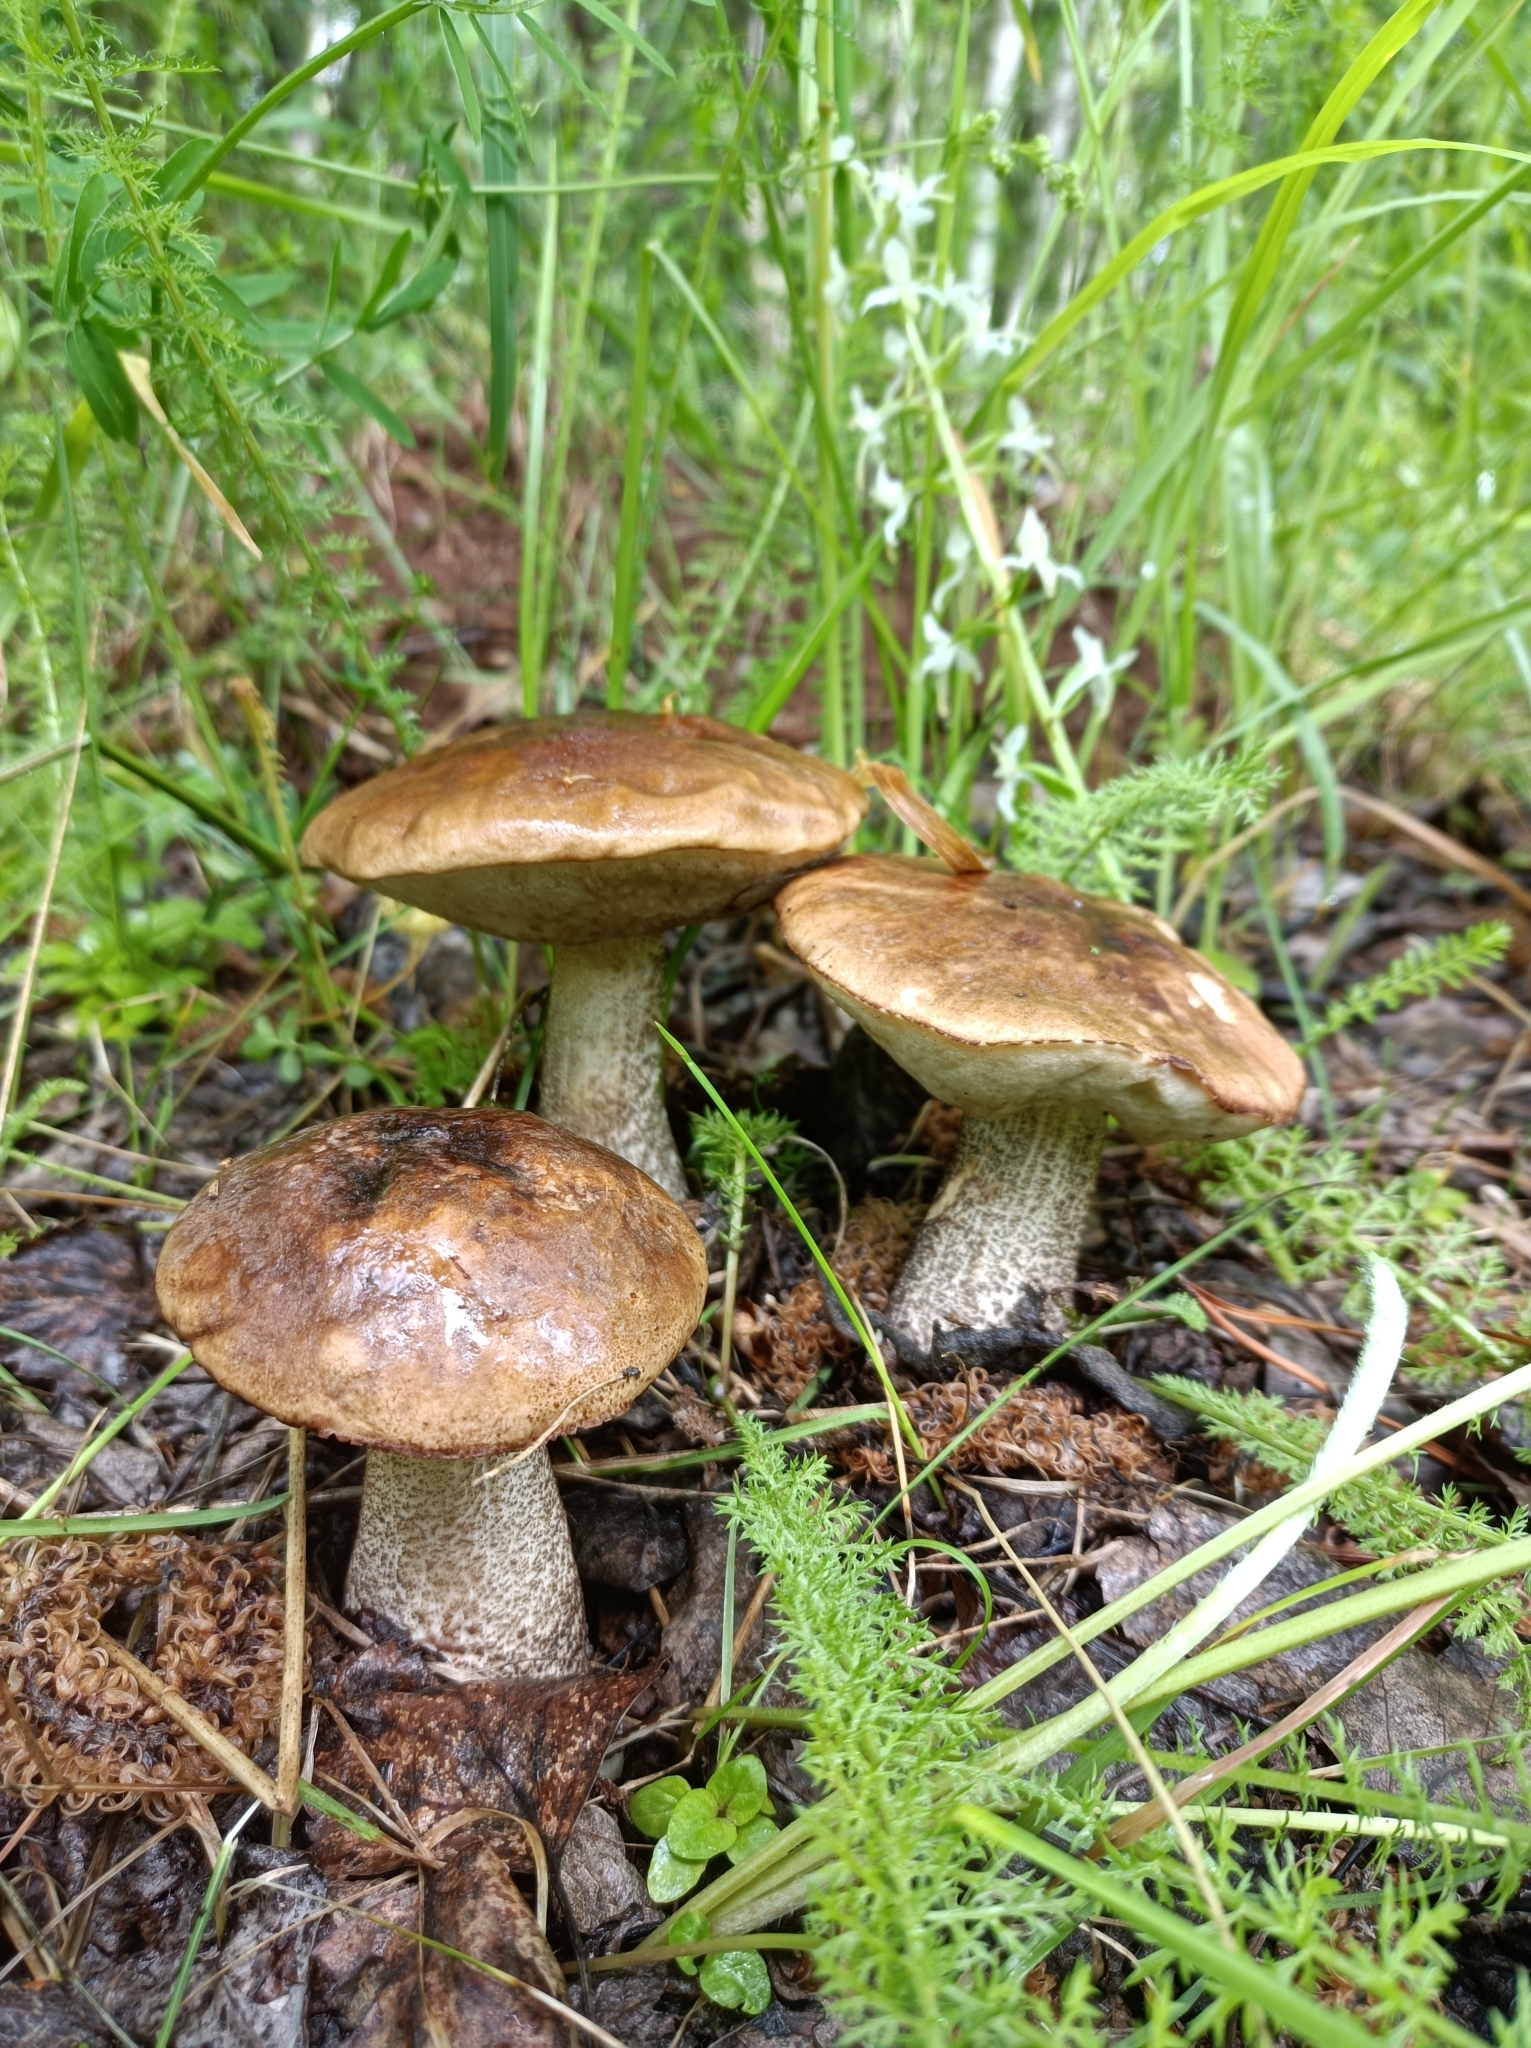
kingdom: Fungi
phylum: Basidiomycota
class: Agaricomycetes
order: Boletales
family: Boletaceae
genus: Leccinum
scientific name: Leccinum scabrum
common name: Blushing bolete
